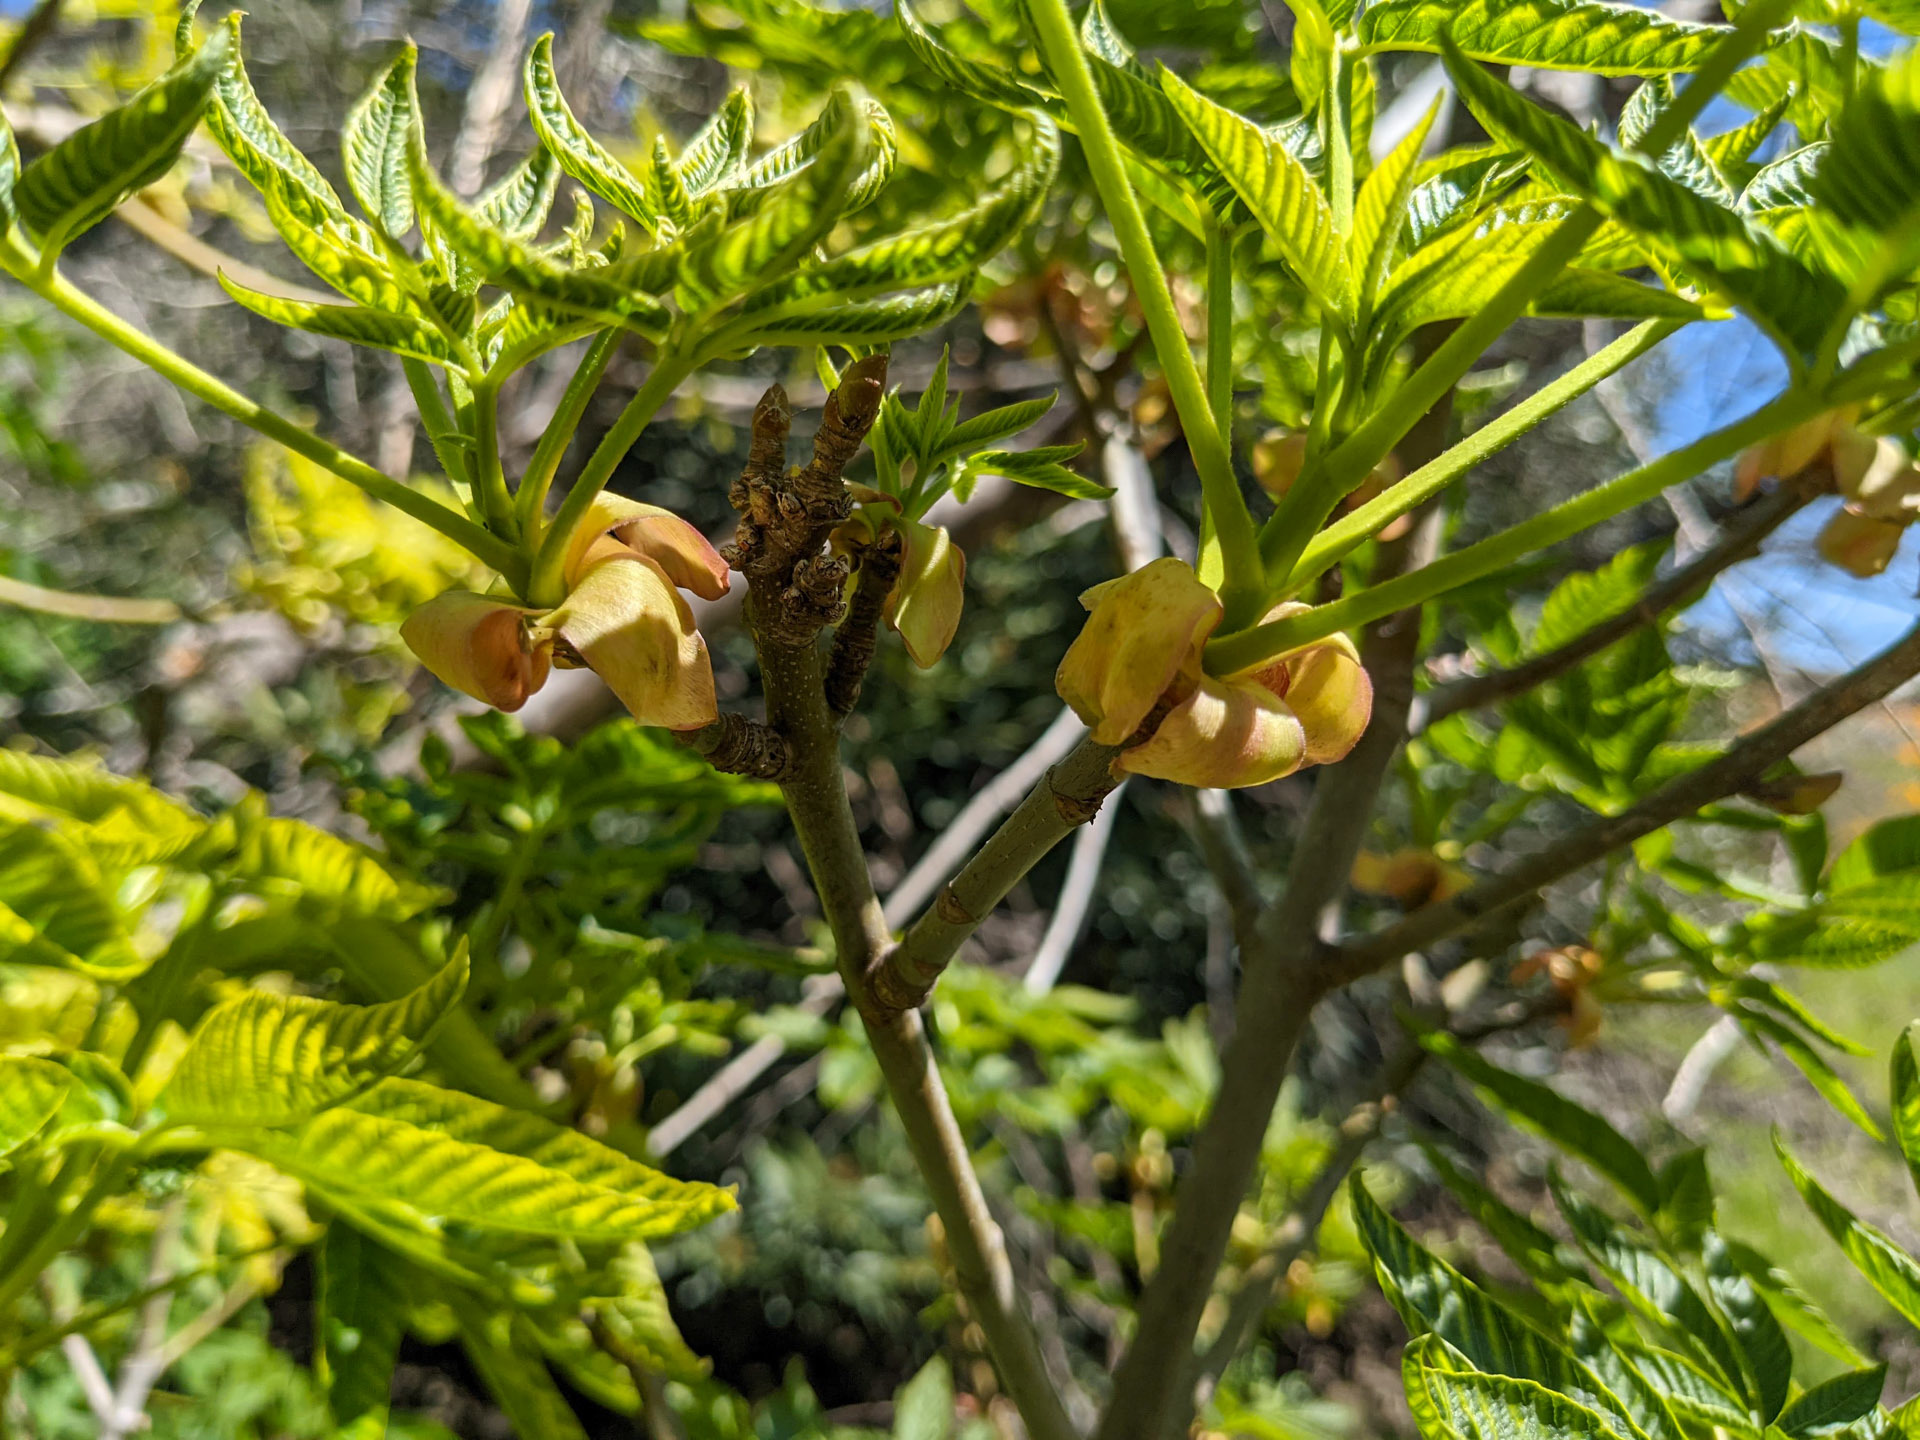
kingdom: Plantae
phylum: Tracheophyta
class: Magnoliopsida
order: Sapindales
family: Sapindaceae
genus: Aesculus
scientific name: Aesculus californica
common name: California buckeye
